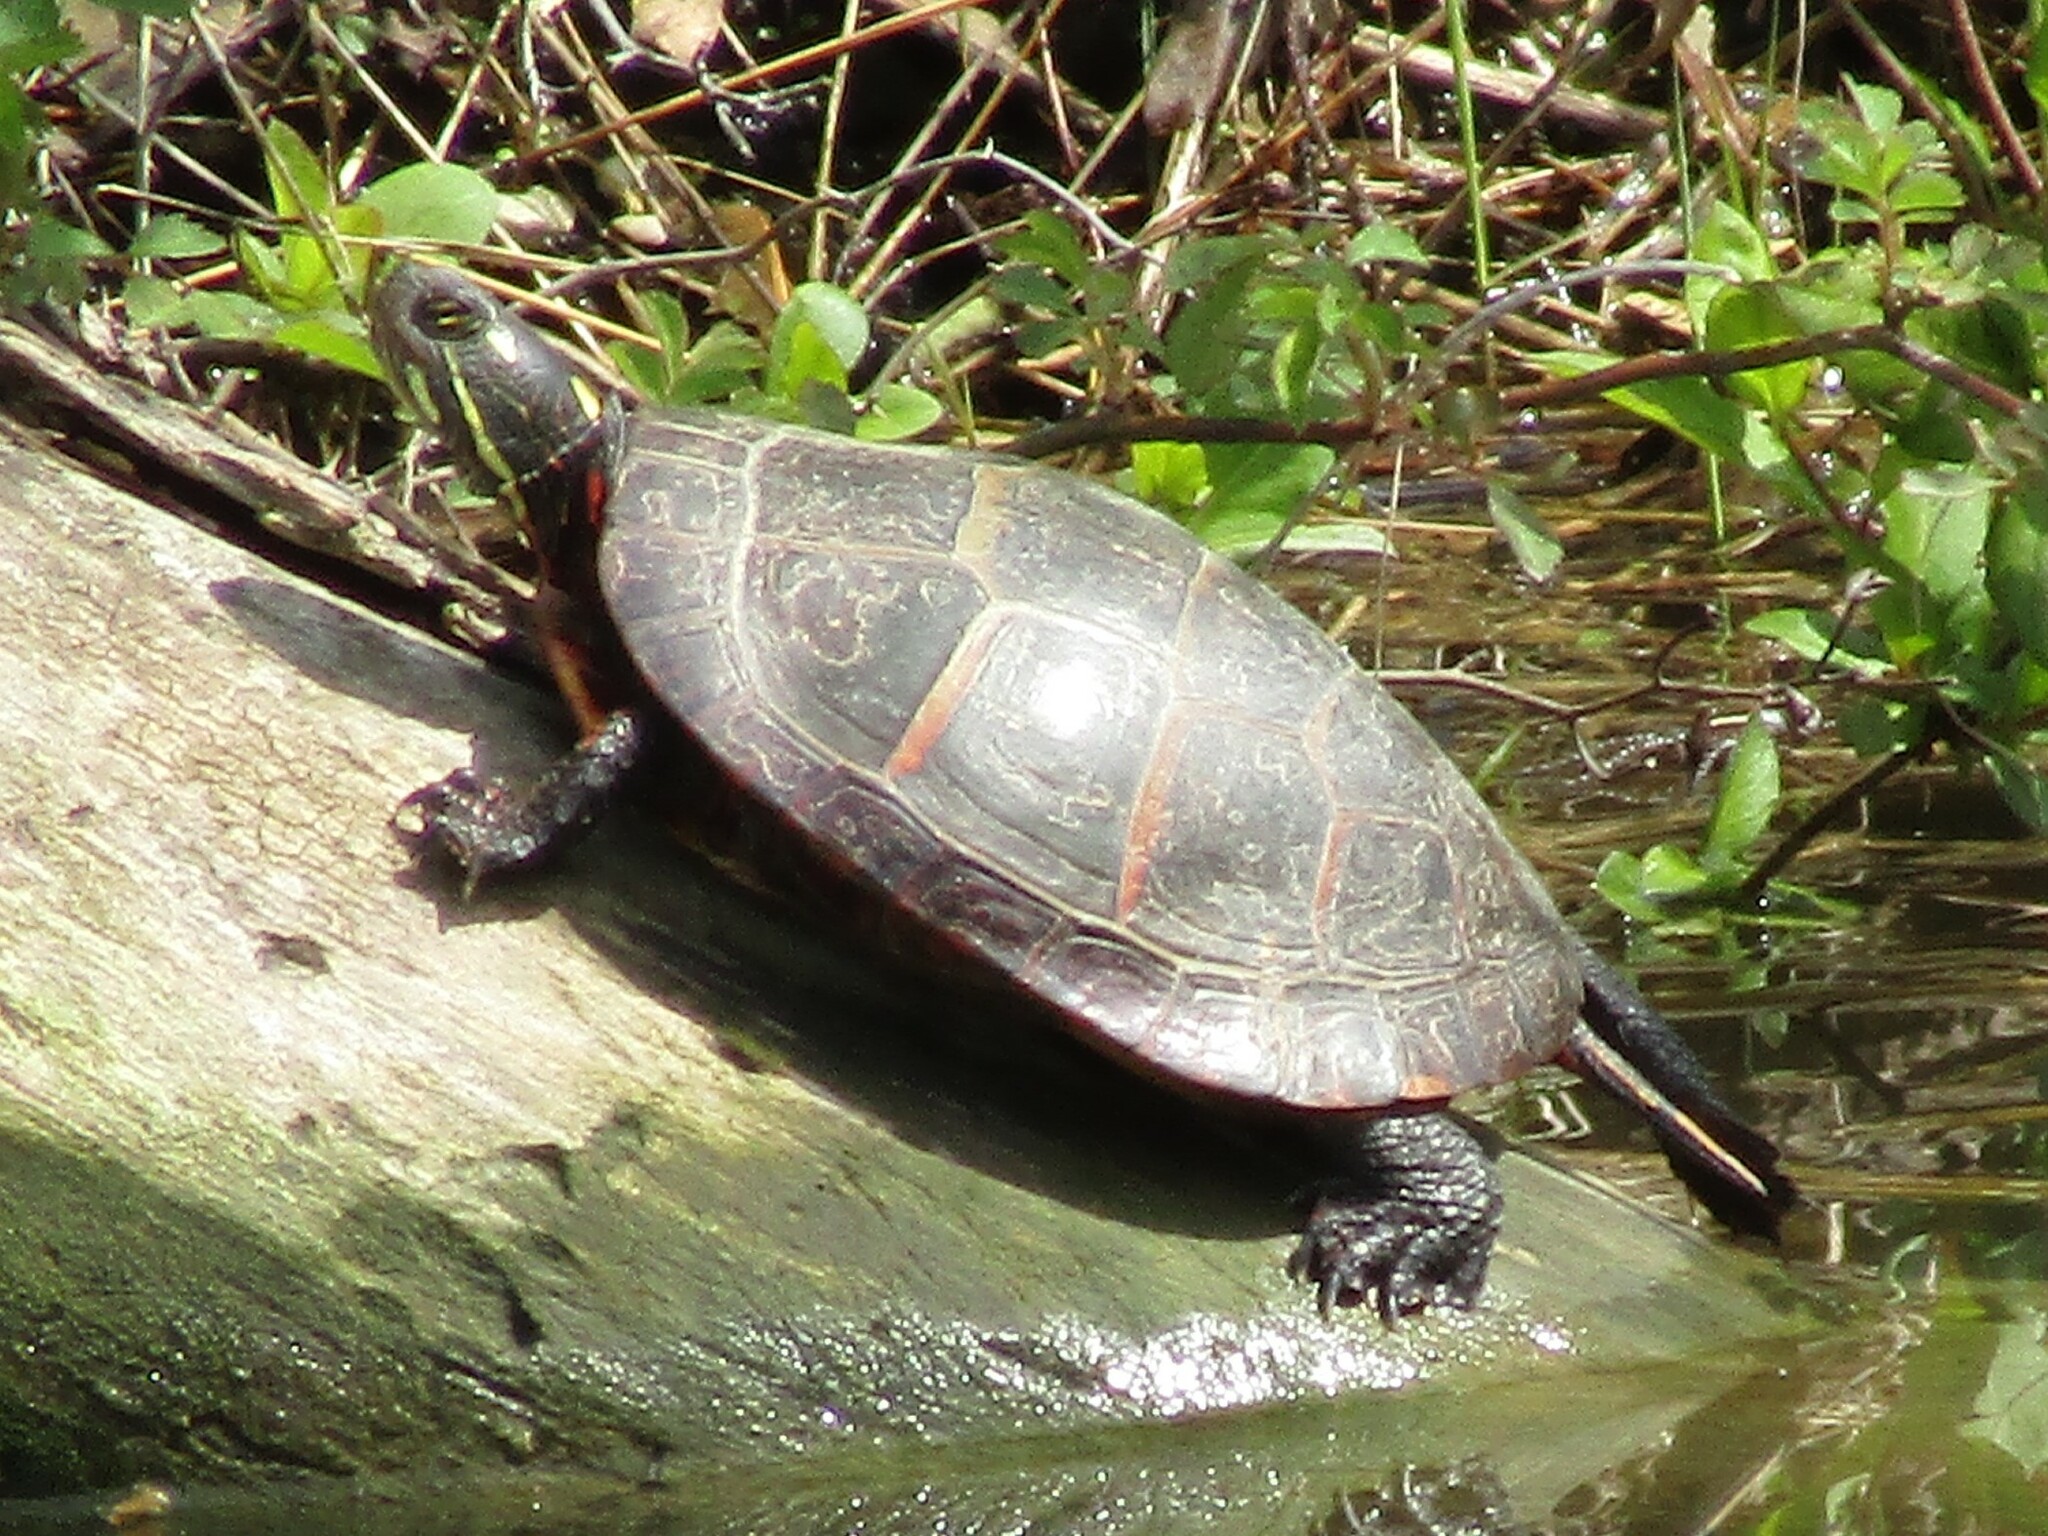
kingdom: Animalia
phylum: Chordata
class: Testudines
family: Emydidae
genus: Chrysemys
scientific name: Chrysemys picta
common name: Painted turtle
